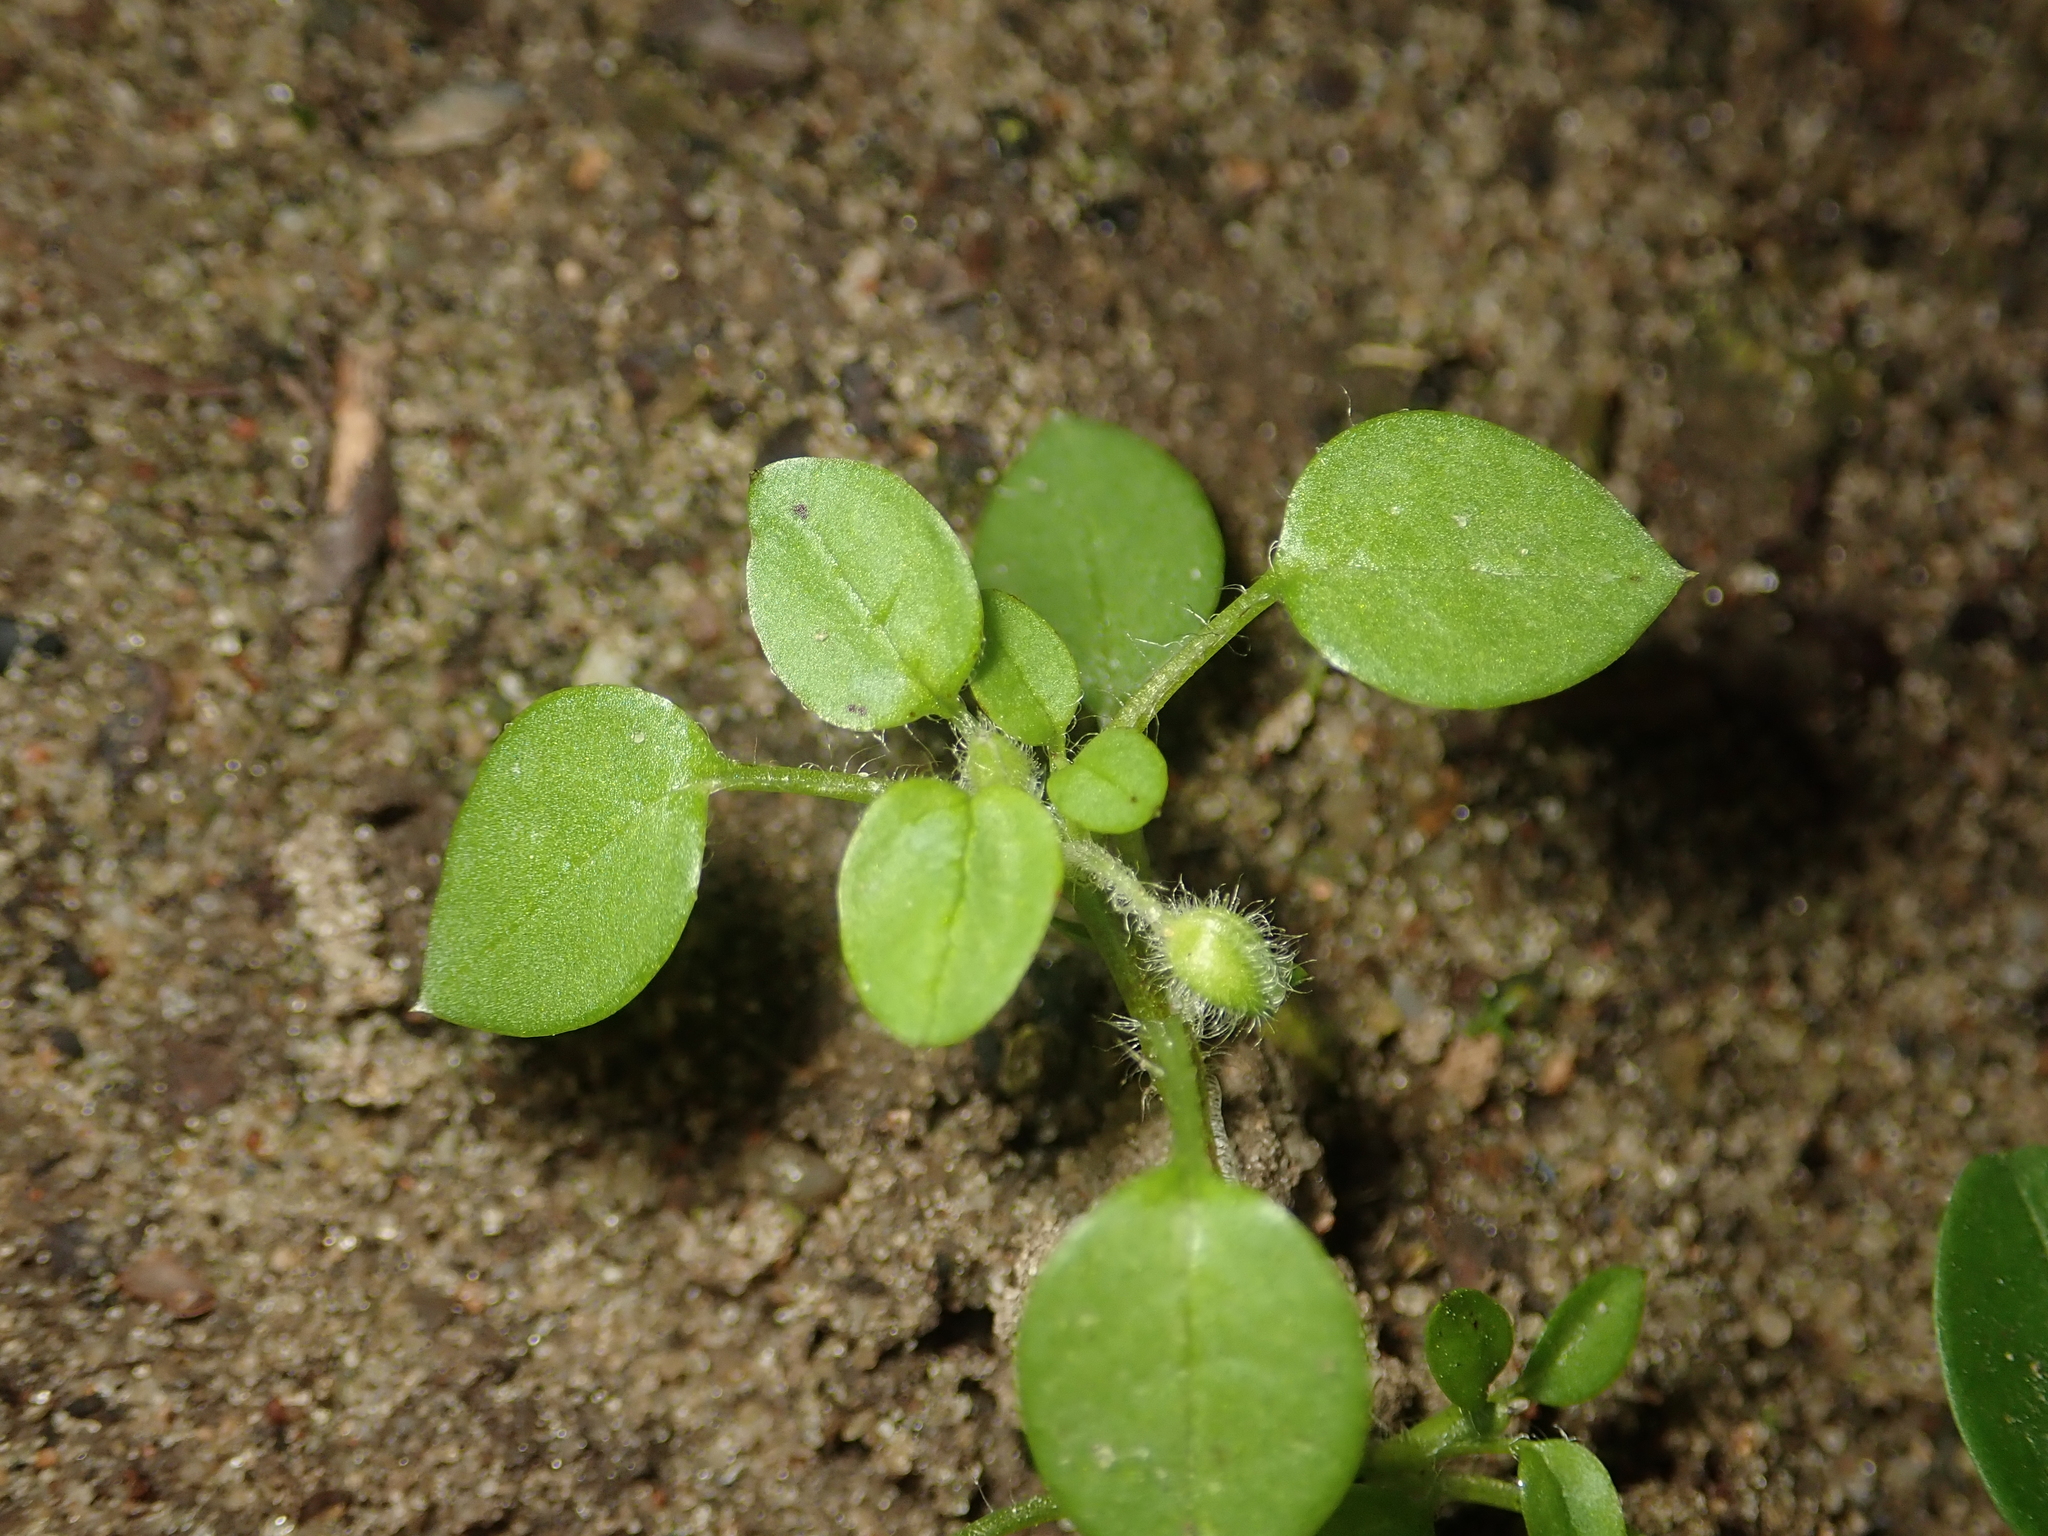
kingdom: Plantae
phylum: Tracheophyta
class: Magnoliopsida
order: Caryophyllales
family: Caryophyllaceae
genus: Stellaria
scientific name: Stellaria media
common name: Common chickweed
